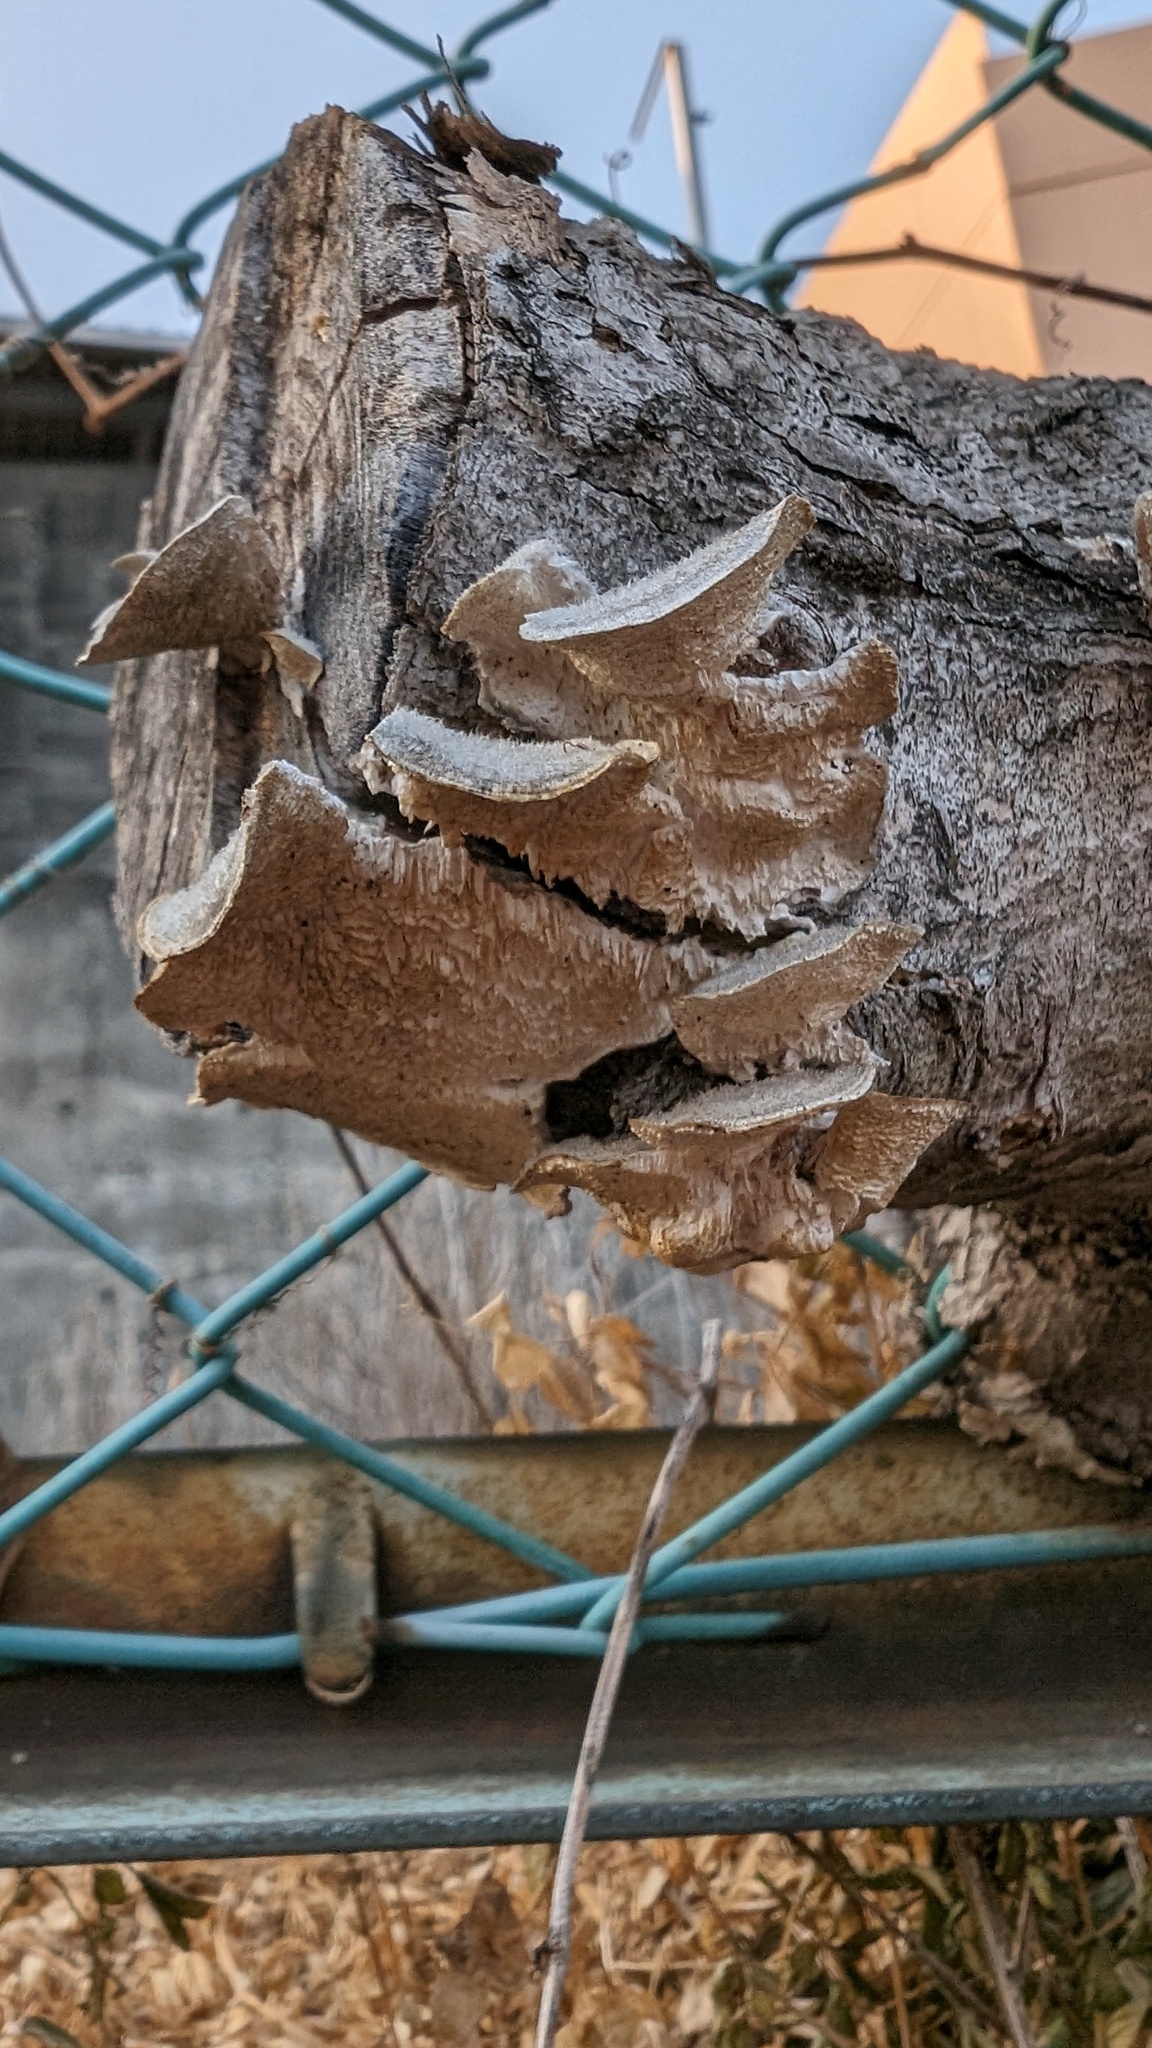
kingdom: Fungi
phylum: Basidiomycota
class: Agaricomycetes
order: Polyporales
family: Polyporaceae
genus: Trametes
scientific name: Trametes hirsuta
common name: Hairy bracket
